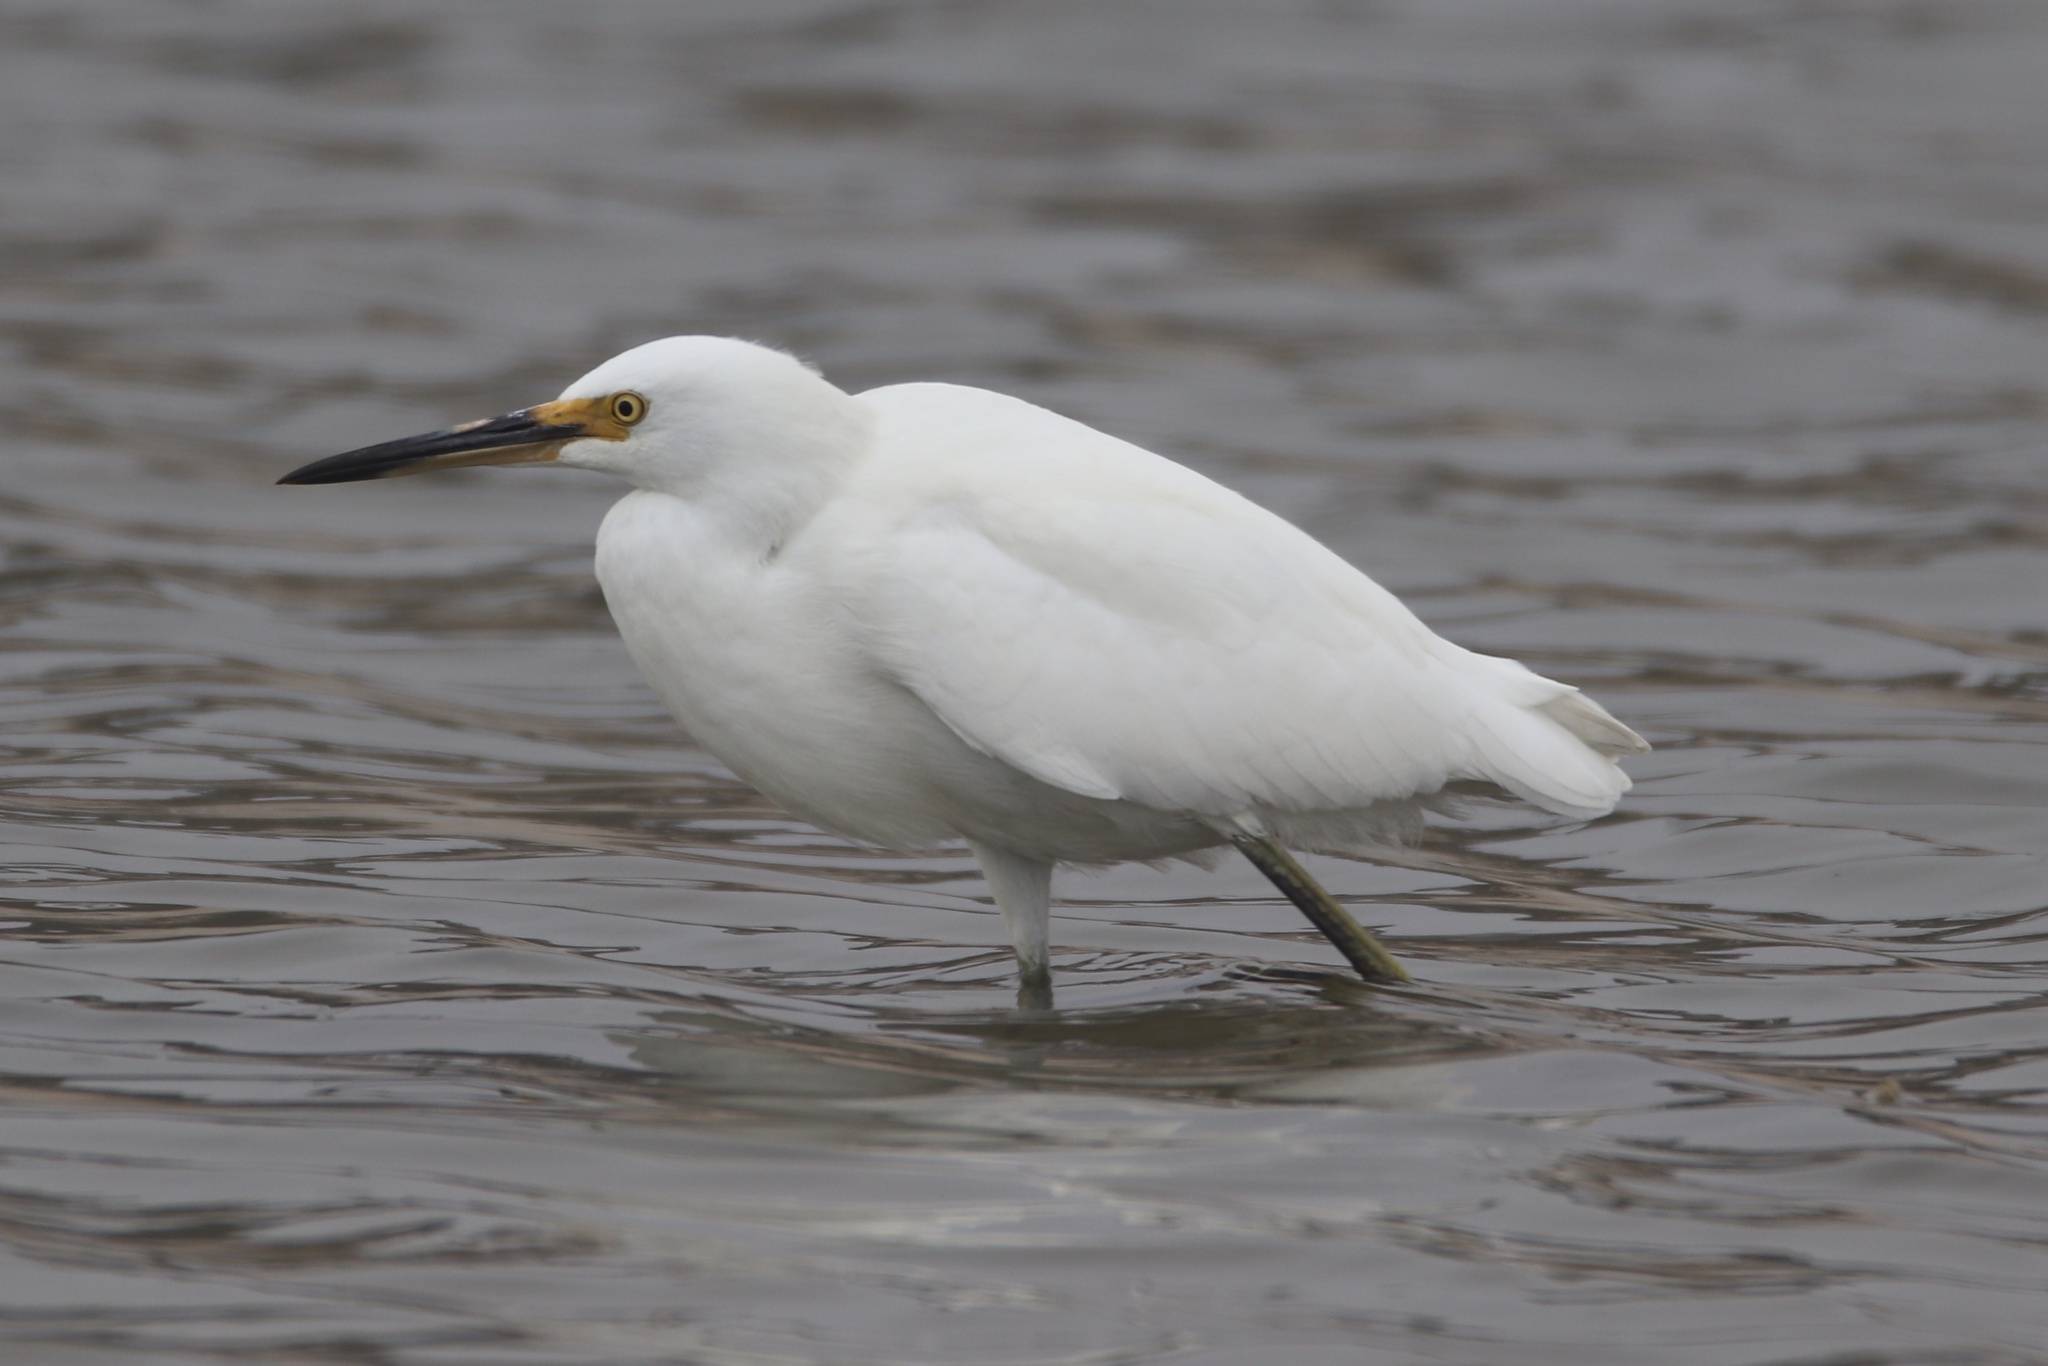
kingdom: Animalia
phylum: Chordata
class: Aves
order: Pelecaniformes
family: Ardeidae
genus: Egretta
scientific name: Egretta thula
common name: Snowy egret
